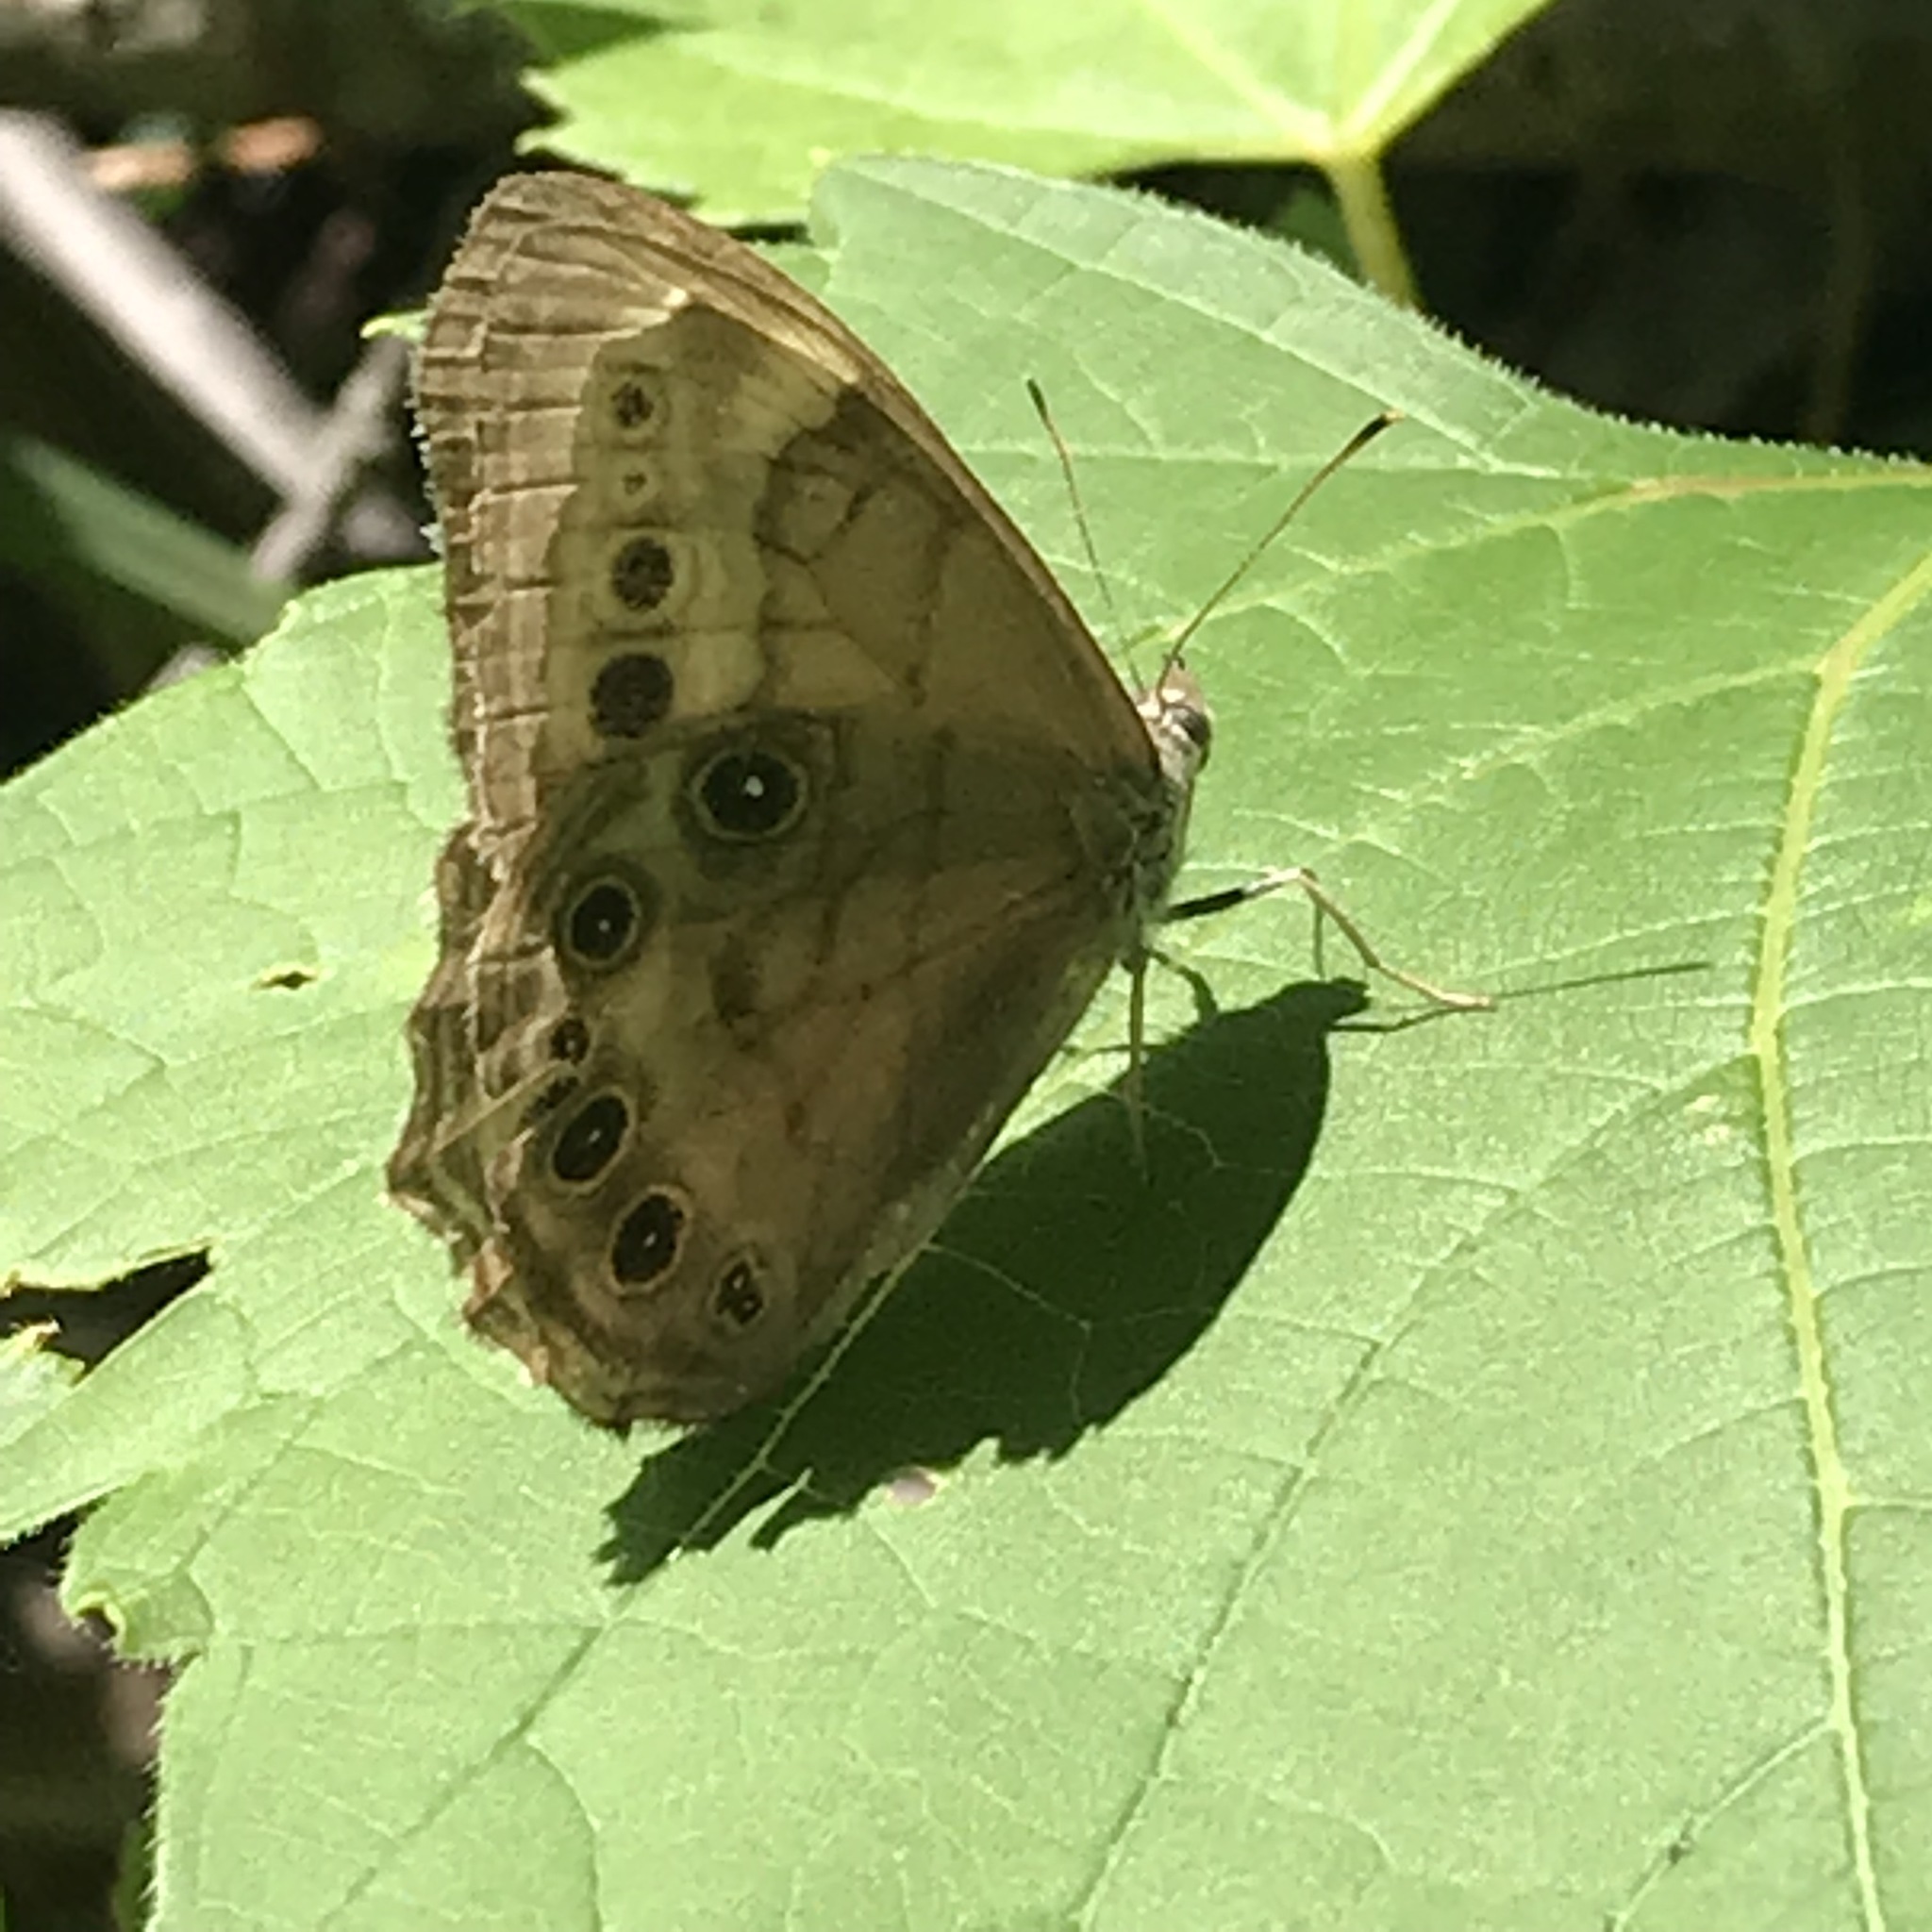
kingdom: Animalia
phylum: Arthropoda
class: Insecta
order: Lepidoptera
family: Nymphalidae
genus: Lethe
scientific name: Lethe anthedon
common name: Northern pearly-eye
